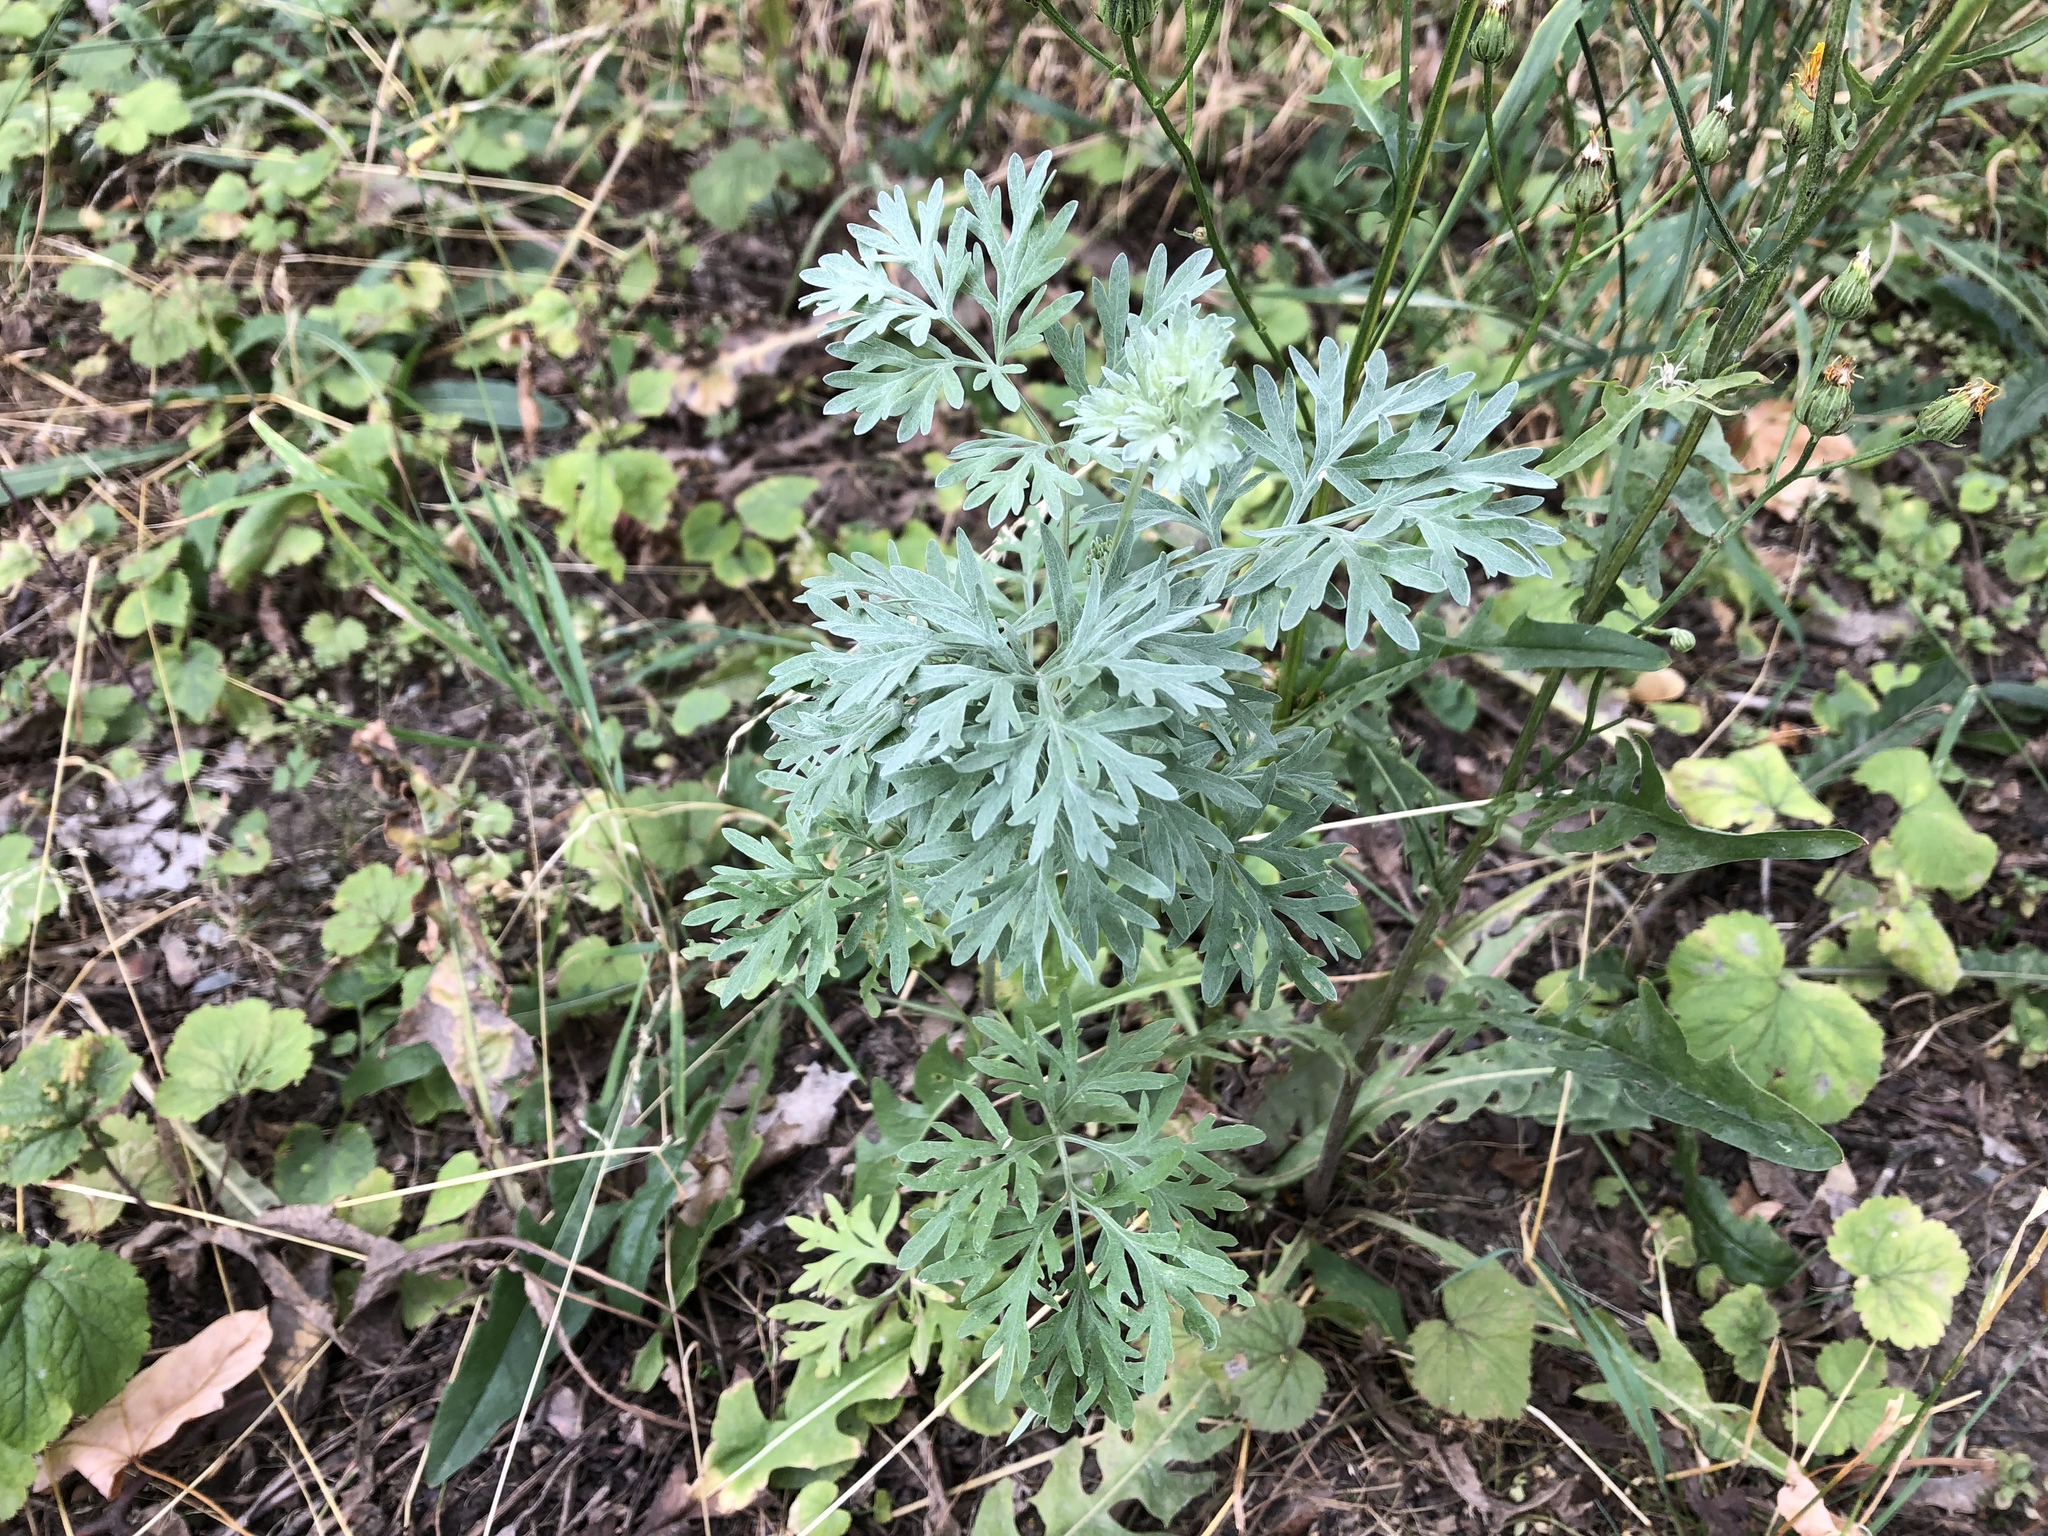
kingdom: Plantae
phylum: Tracheophyta
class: Magnoliopsida
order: Asterales
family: Asteraceae
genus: Artemisia
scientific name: Artemisia absinthium
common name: Wormwood
